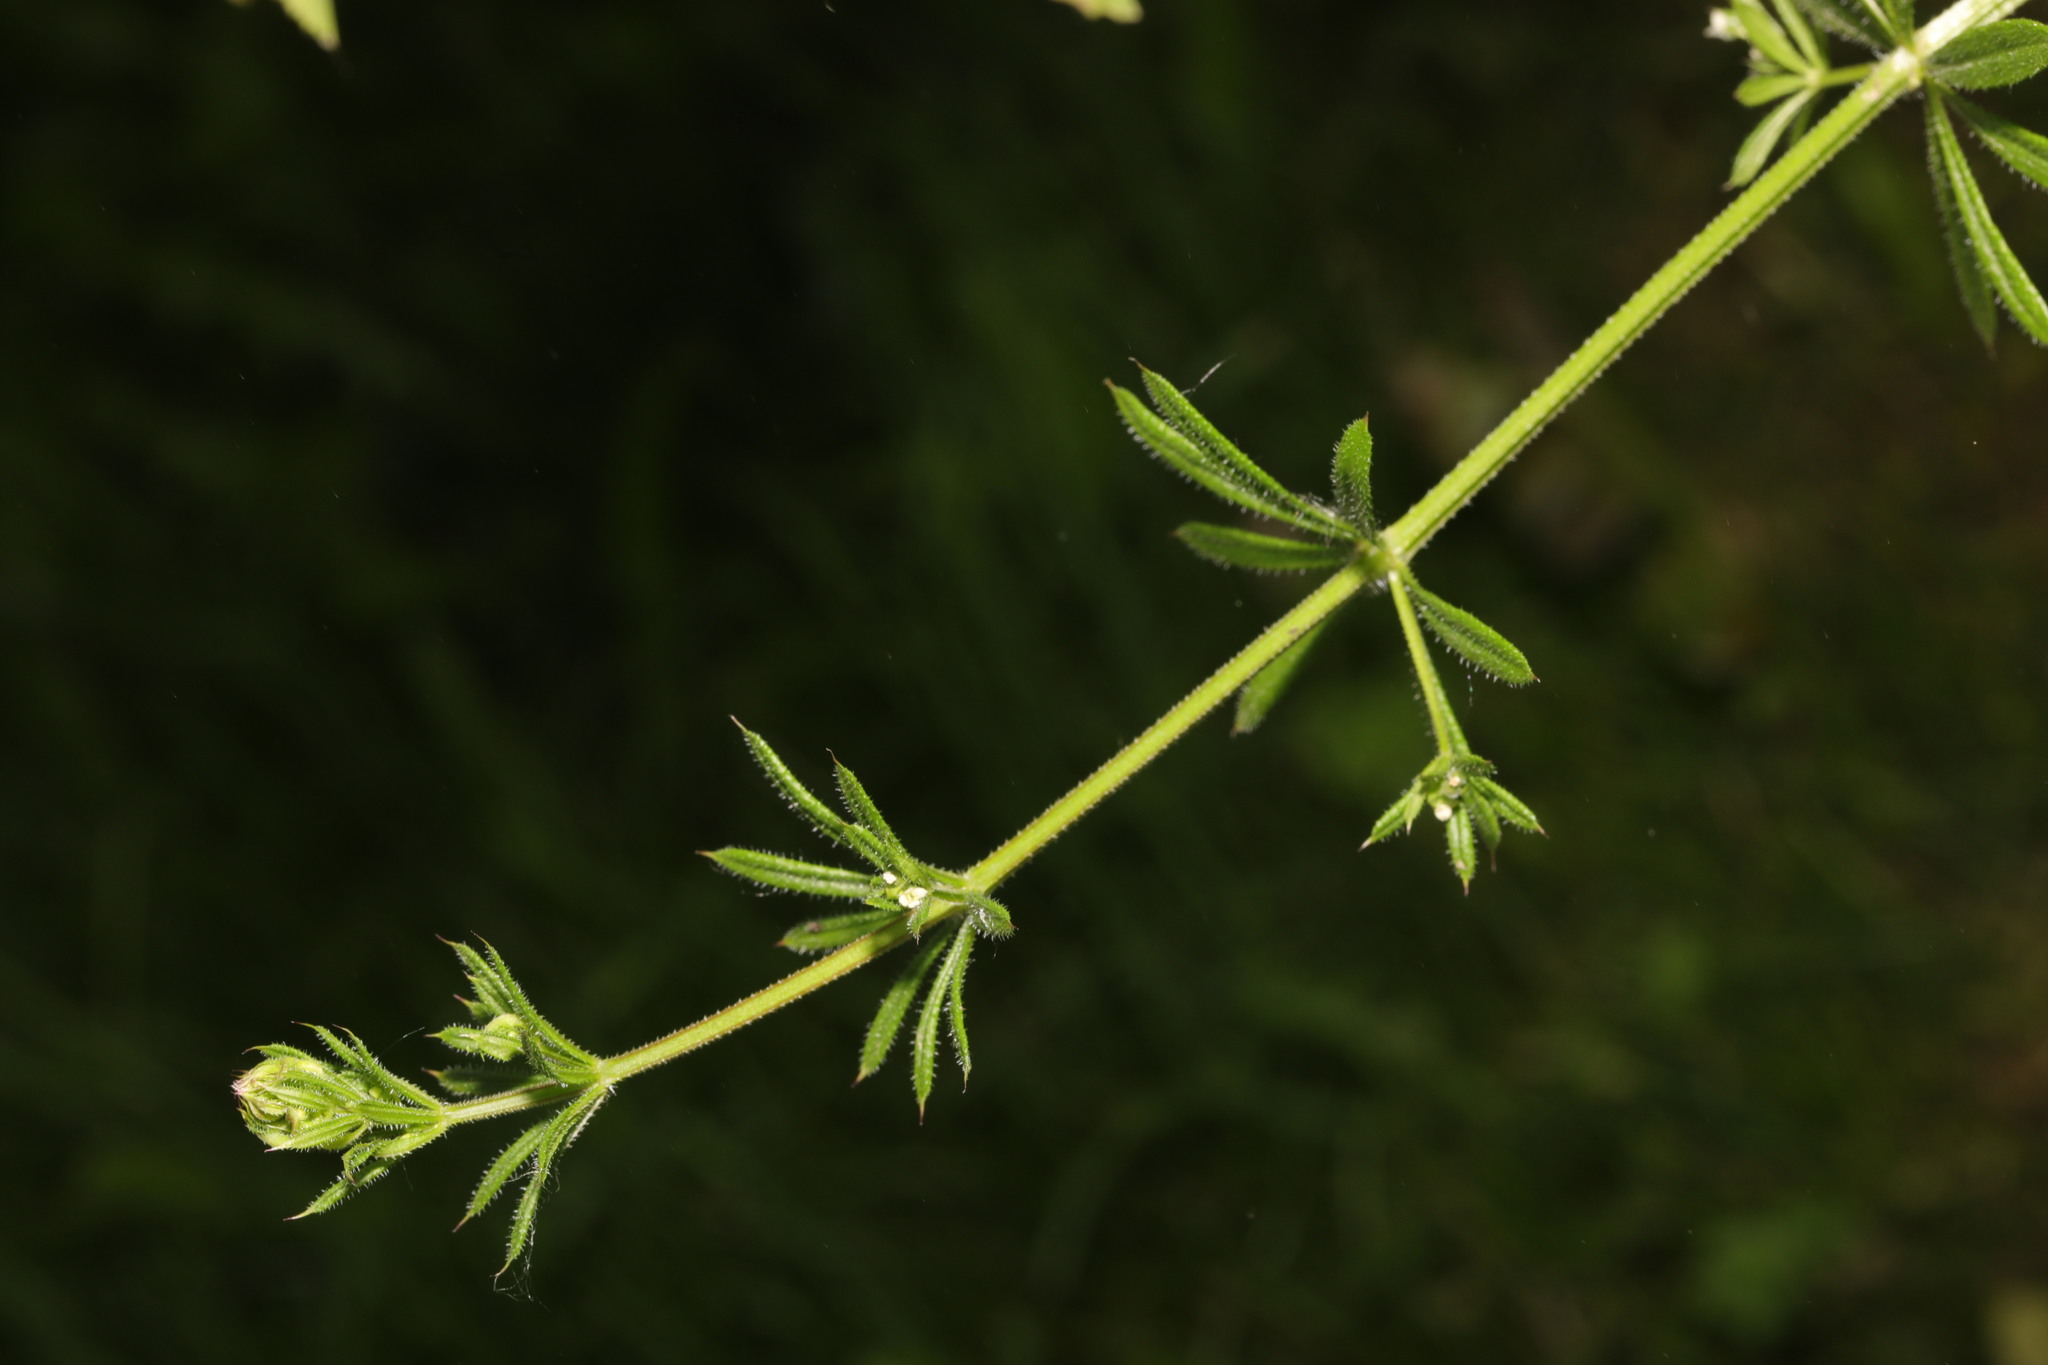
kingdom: Plantae
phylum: Tracheophyta
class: Magnoliopsida
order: Gentianales
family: Rubiaceae
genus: Galium
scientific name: Galium aparine
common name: Cleavers
